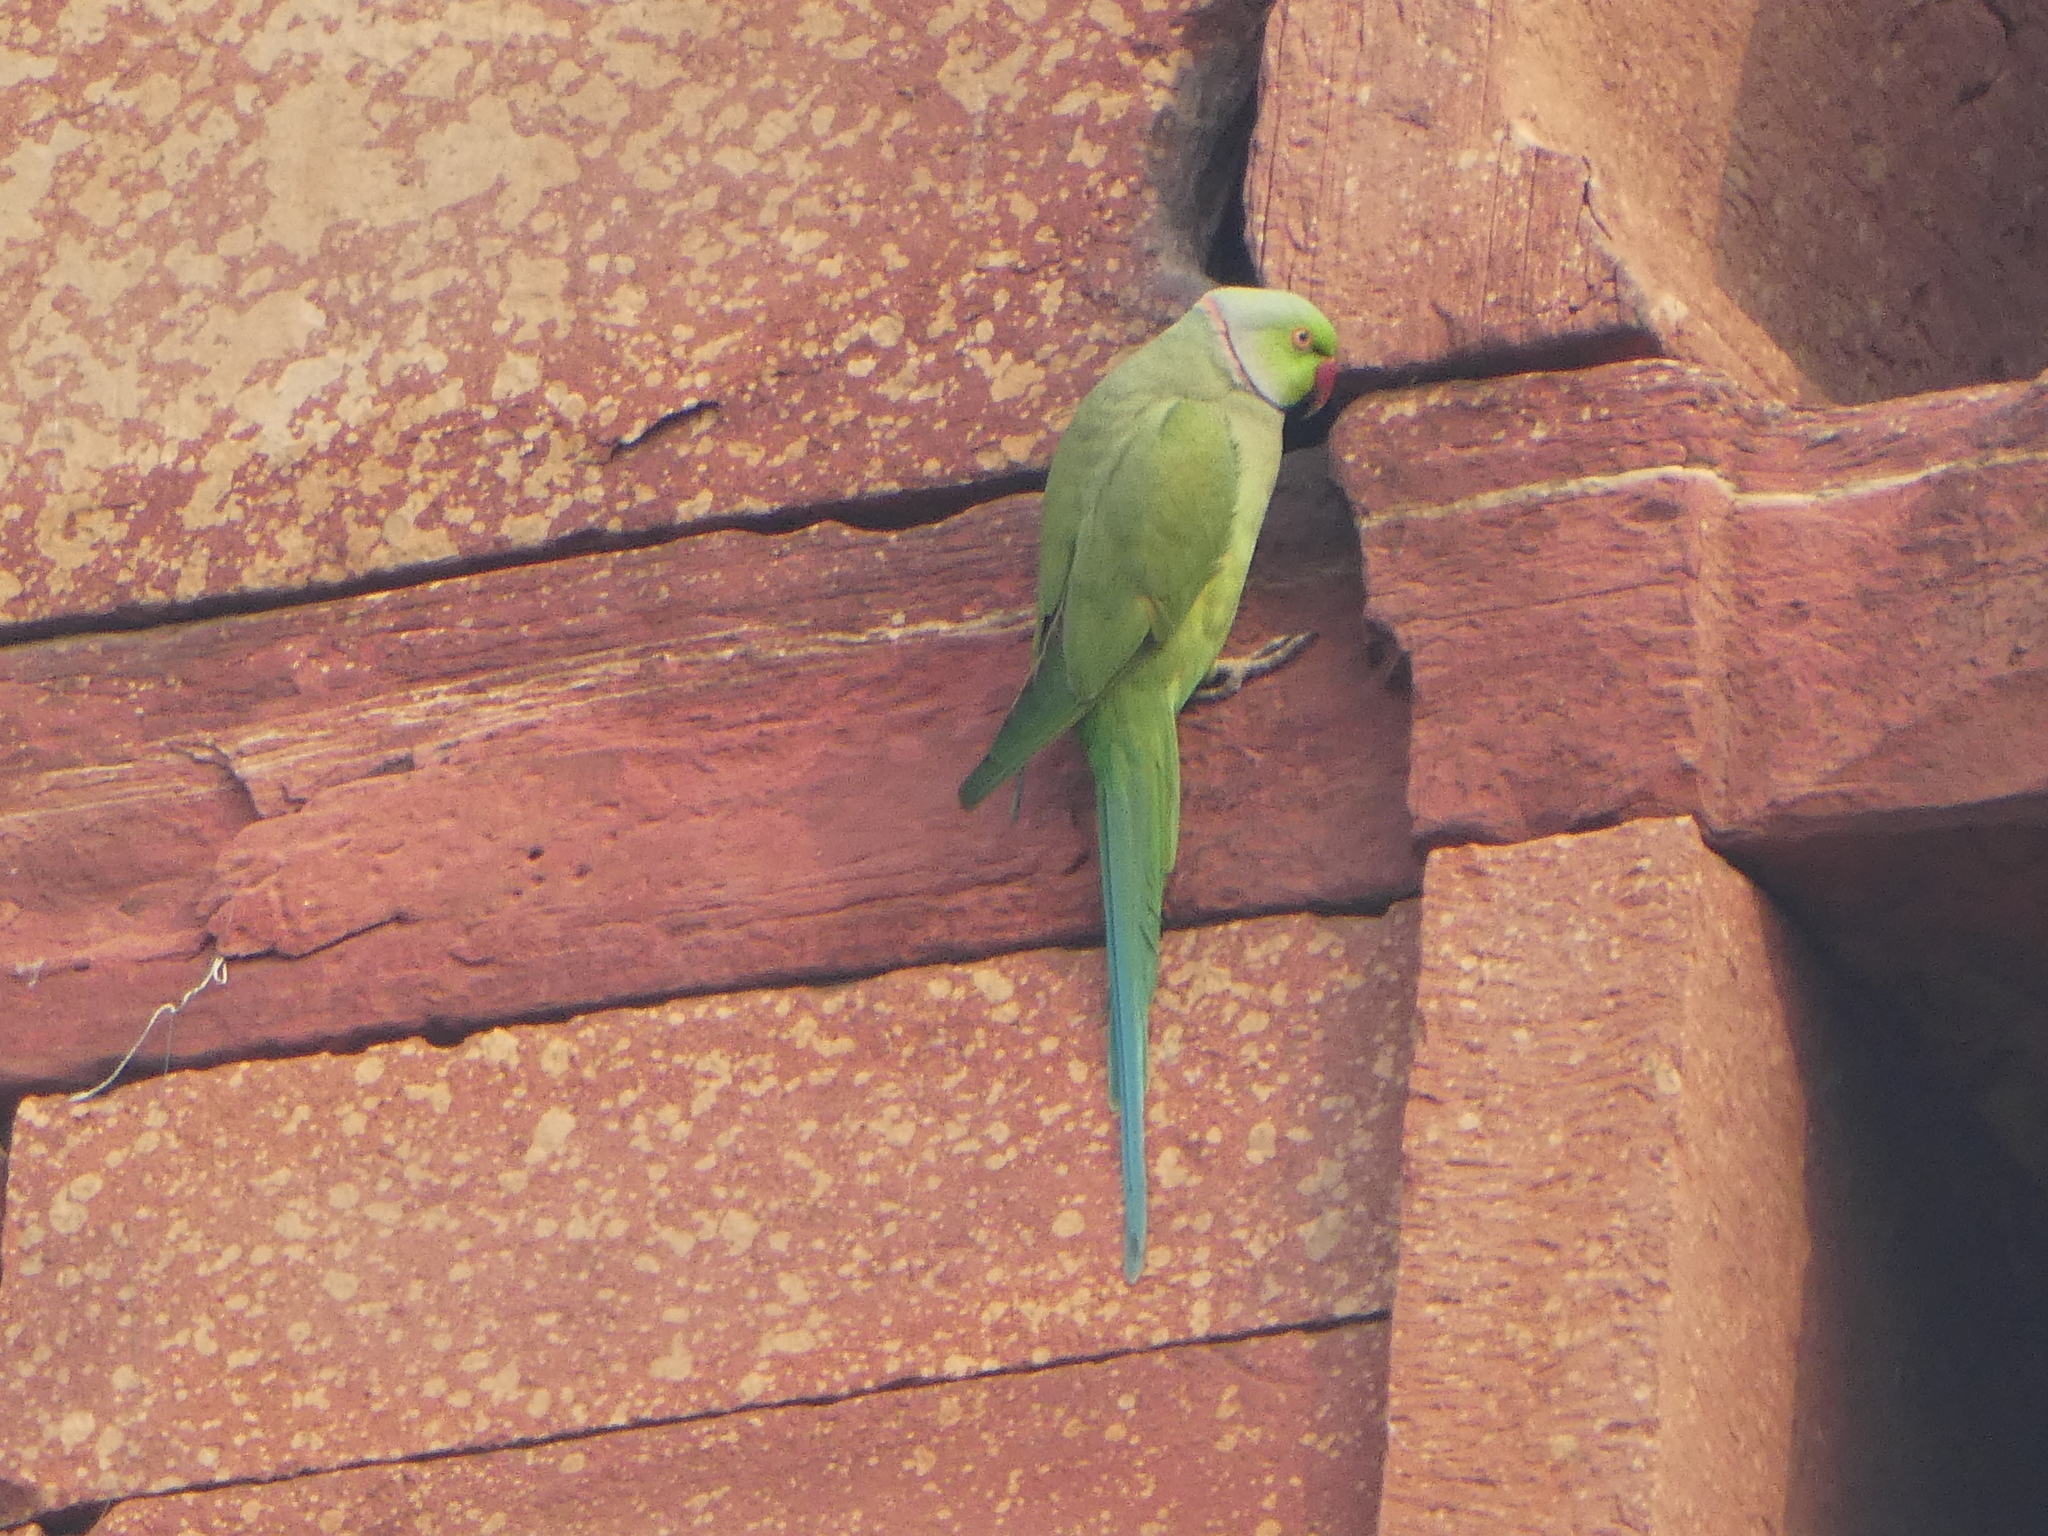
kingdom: Animalia
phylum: Chordata
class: Aves
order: Psittaciformes
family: Psittacidae
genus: Psittacula
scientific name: Psittacula krameri
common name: Rose-ringed parakeet
